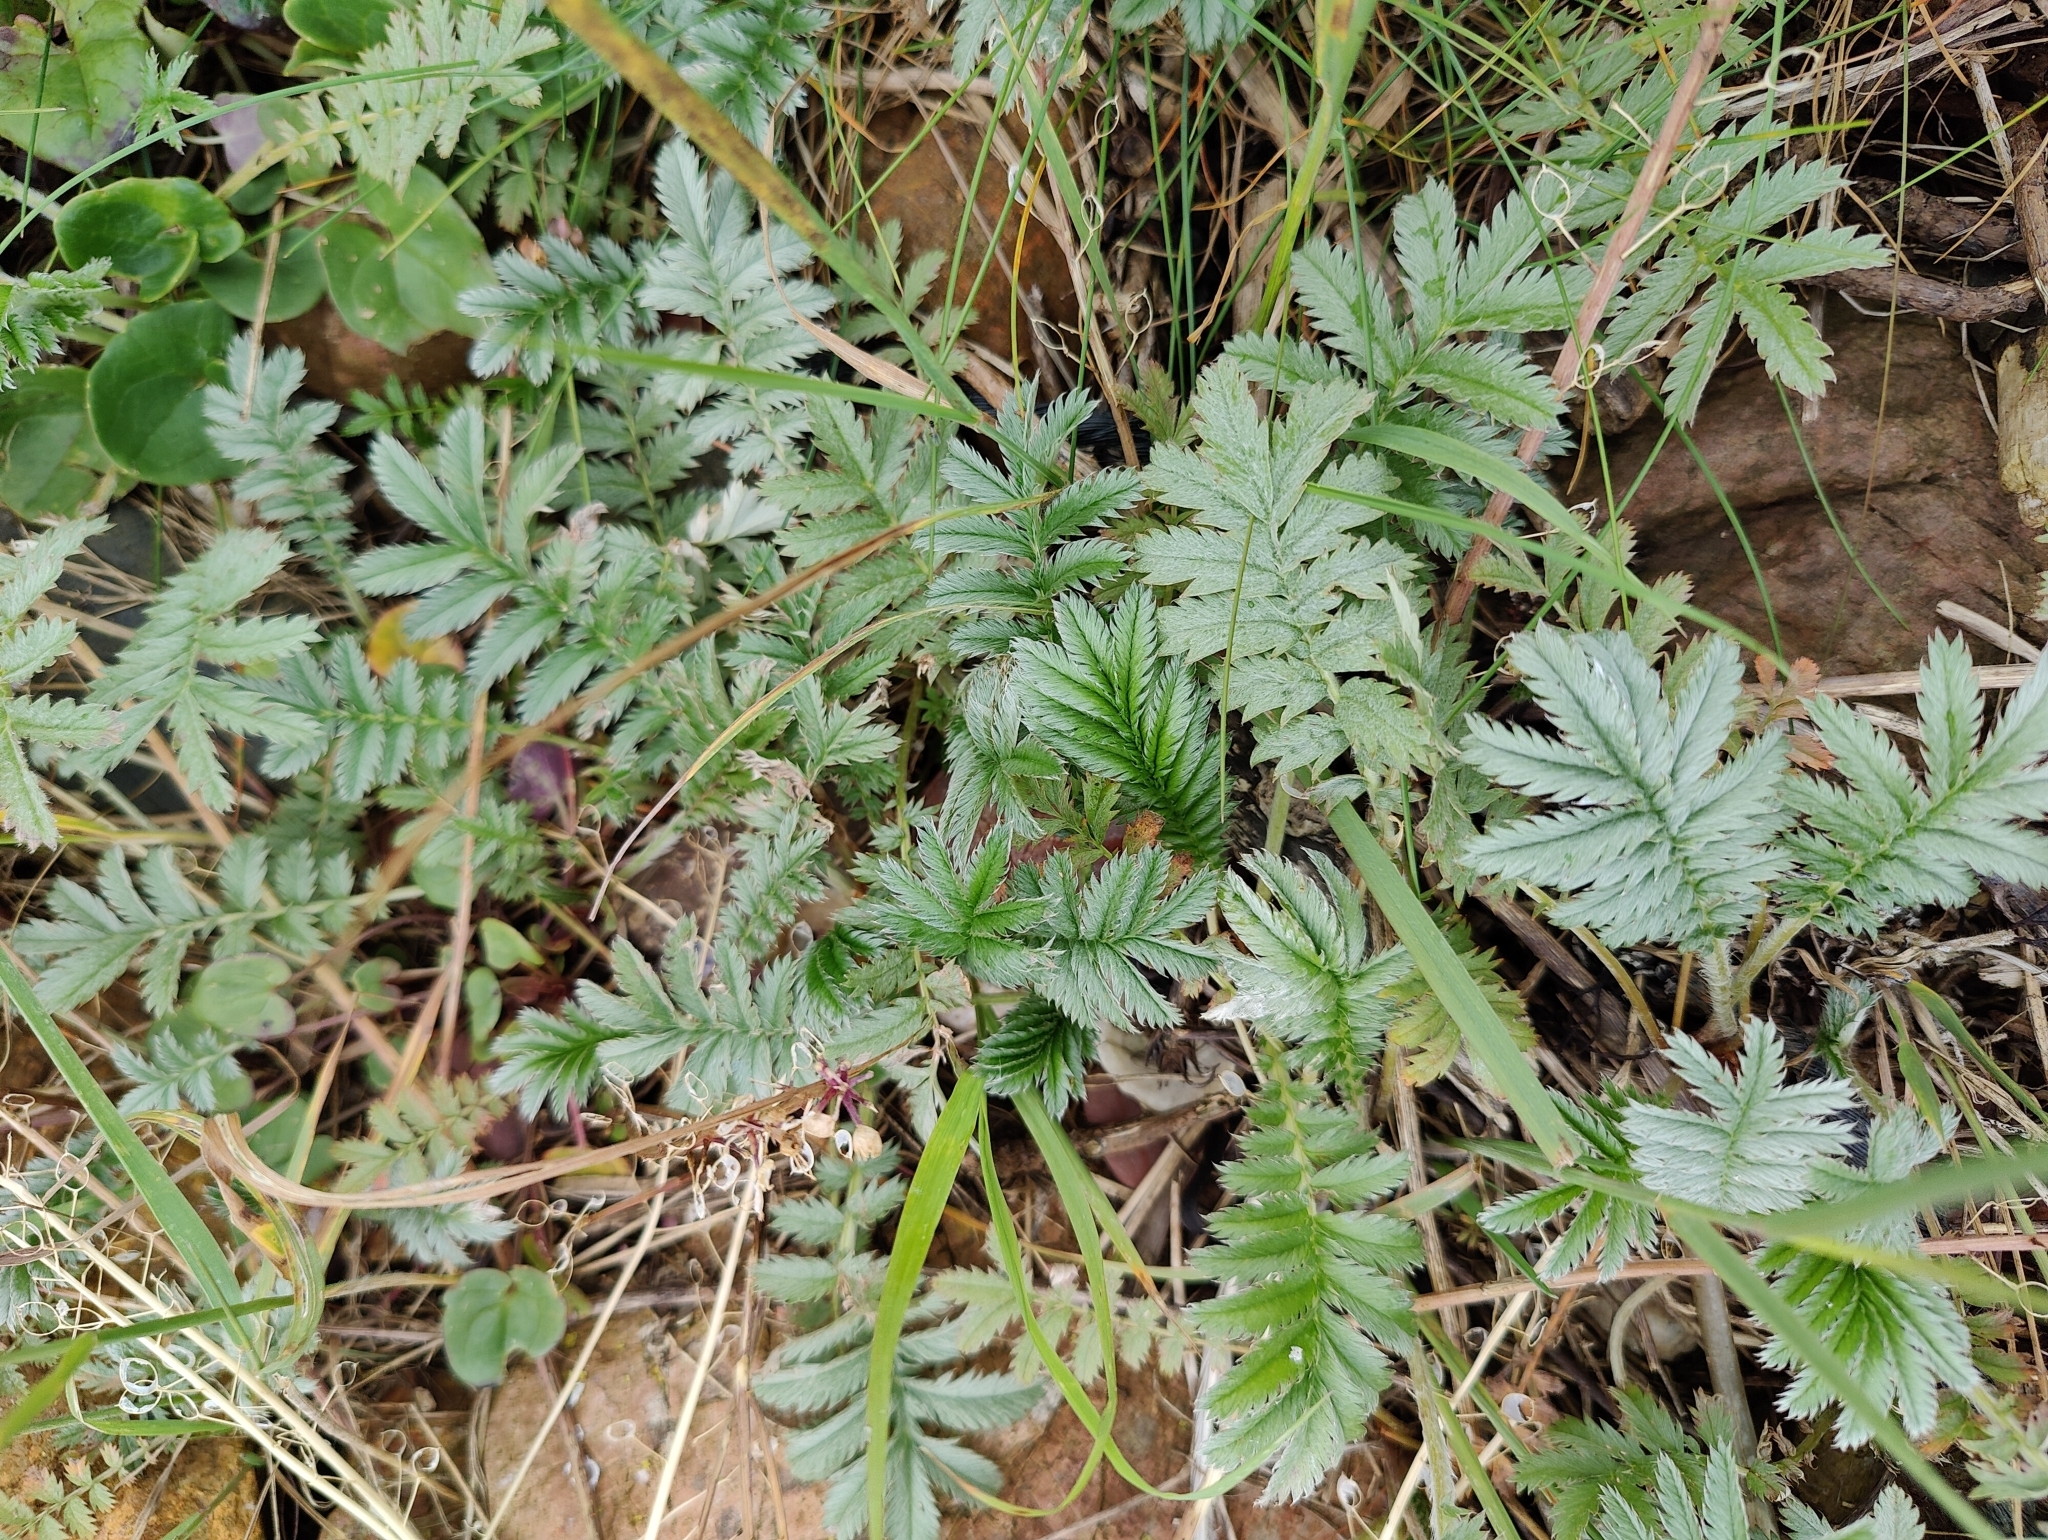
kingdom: Plantae
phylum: Tracheophyta
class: Magnoliopsida
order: Rosales
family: Rosaceae
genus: Argentina
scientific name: Argentina anserina
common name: Common silverweed
